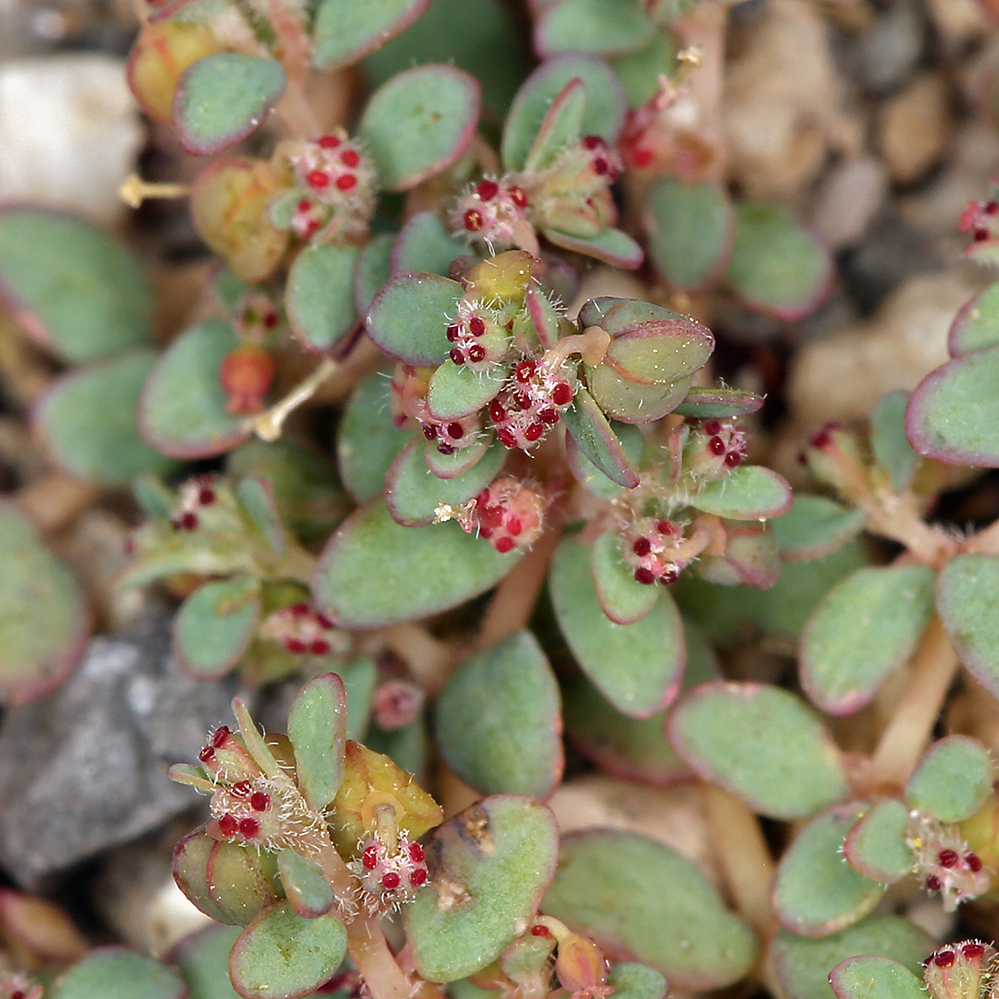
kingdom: Plantae
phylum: Tracheophyta
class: Magnoliopsida
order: Malpighiales
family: Euphorbiaceae
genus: Euphorbia
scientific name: Euphorbia micromera
